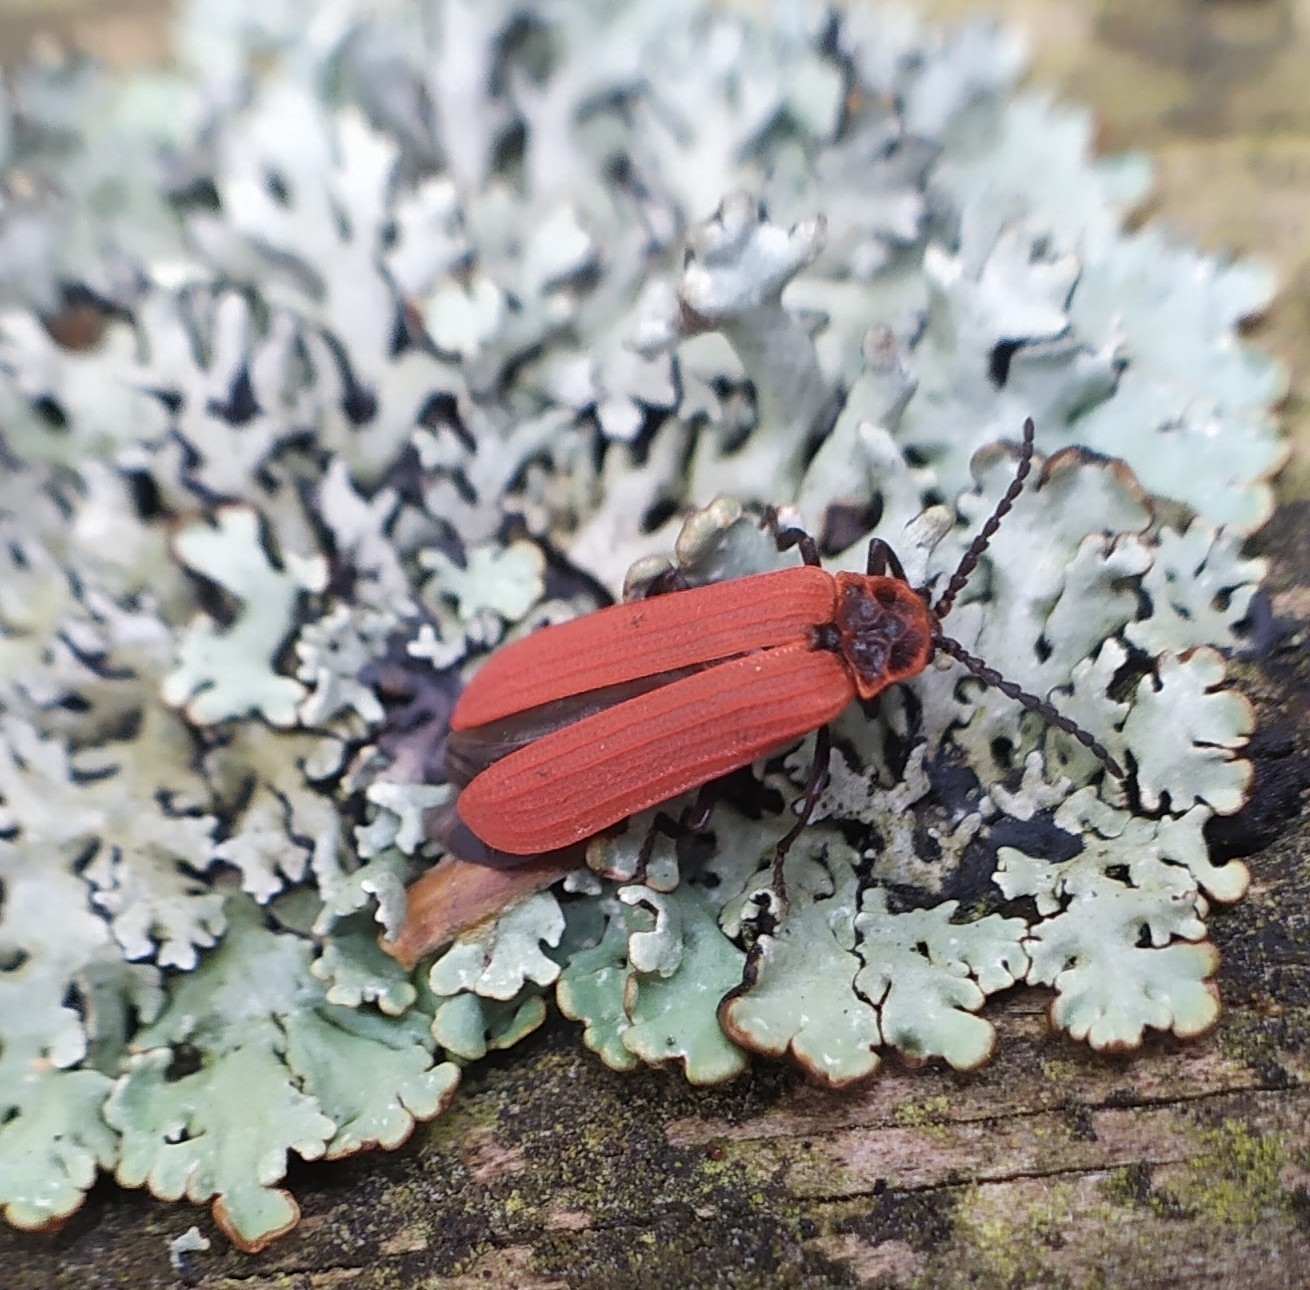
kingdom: Animalia
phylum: Arthropoda
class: Insecta
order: Coleoptera
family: Lycidae
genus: Dictyoptera
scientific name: Dictyoptera aurora
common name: Golden net-winged beetle
